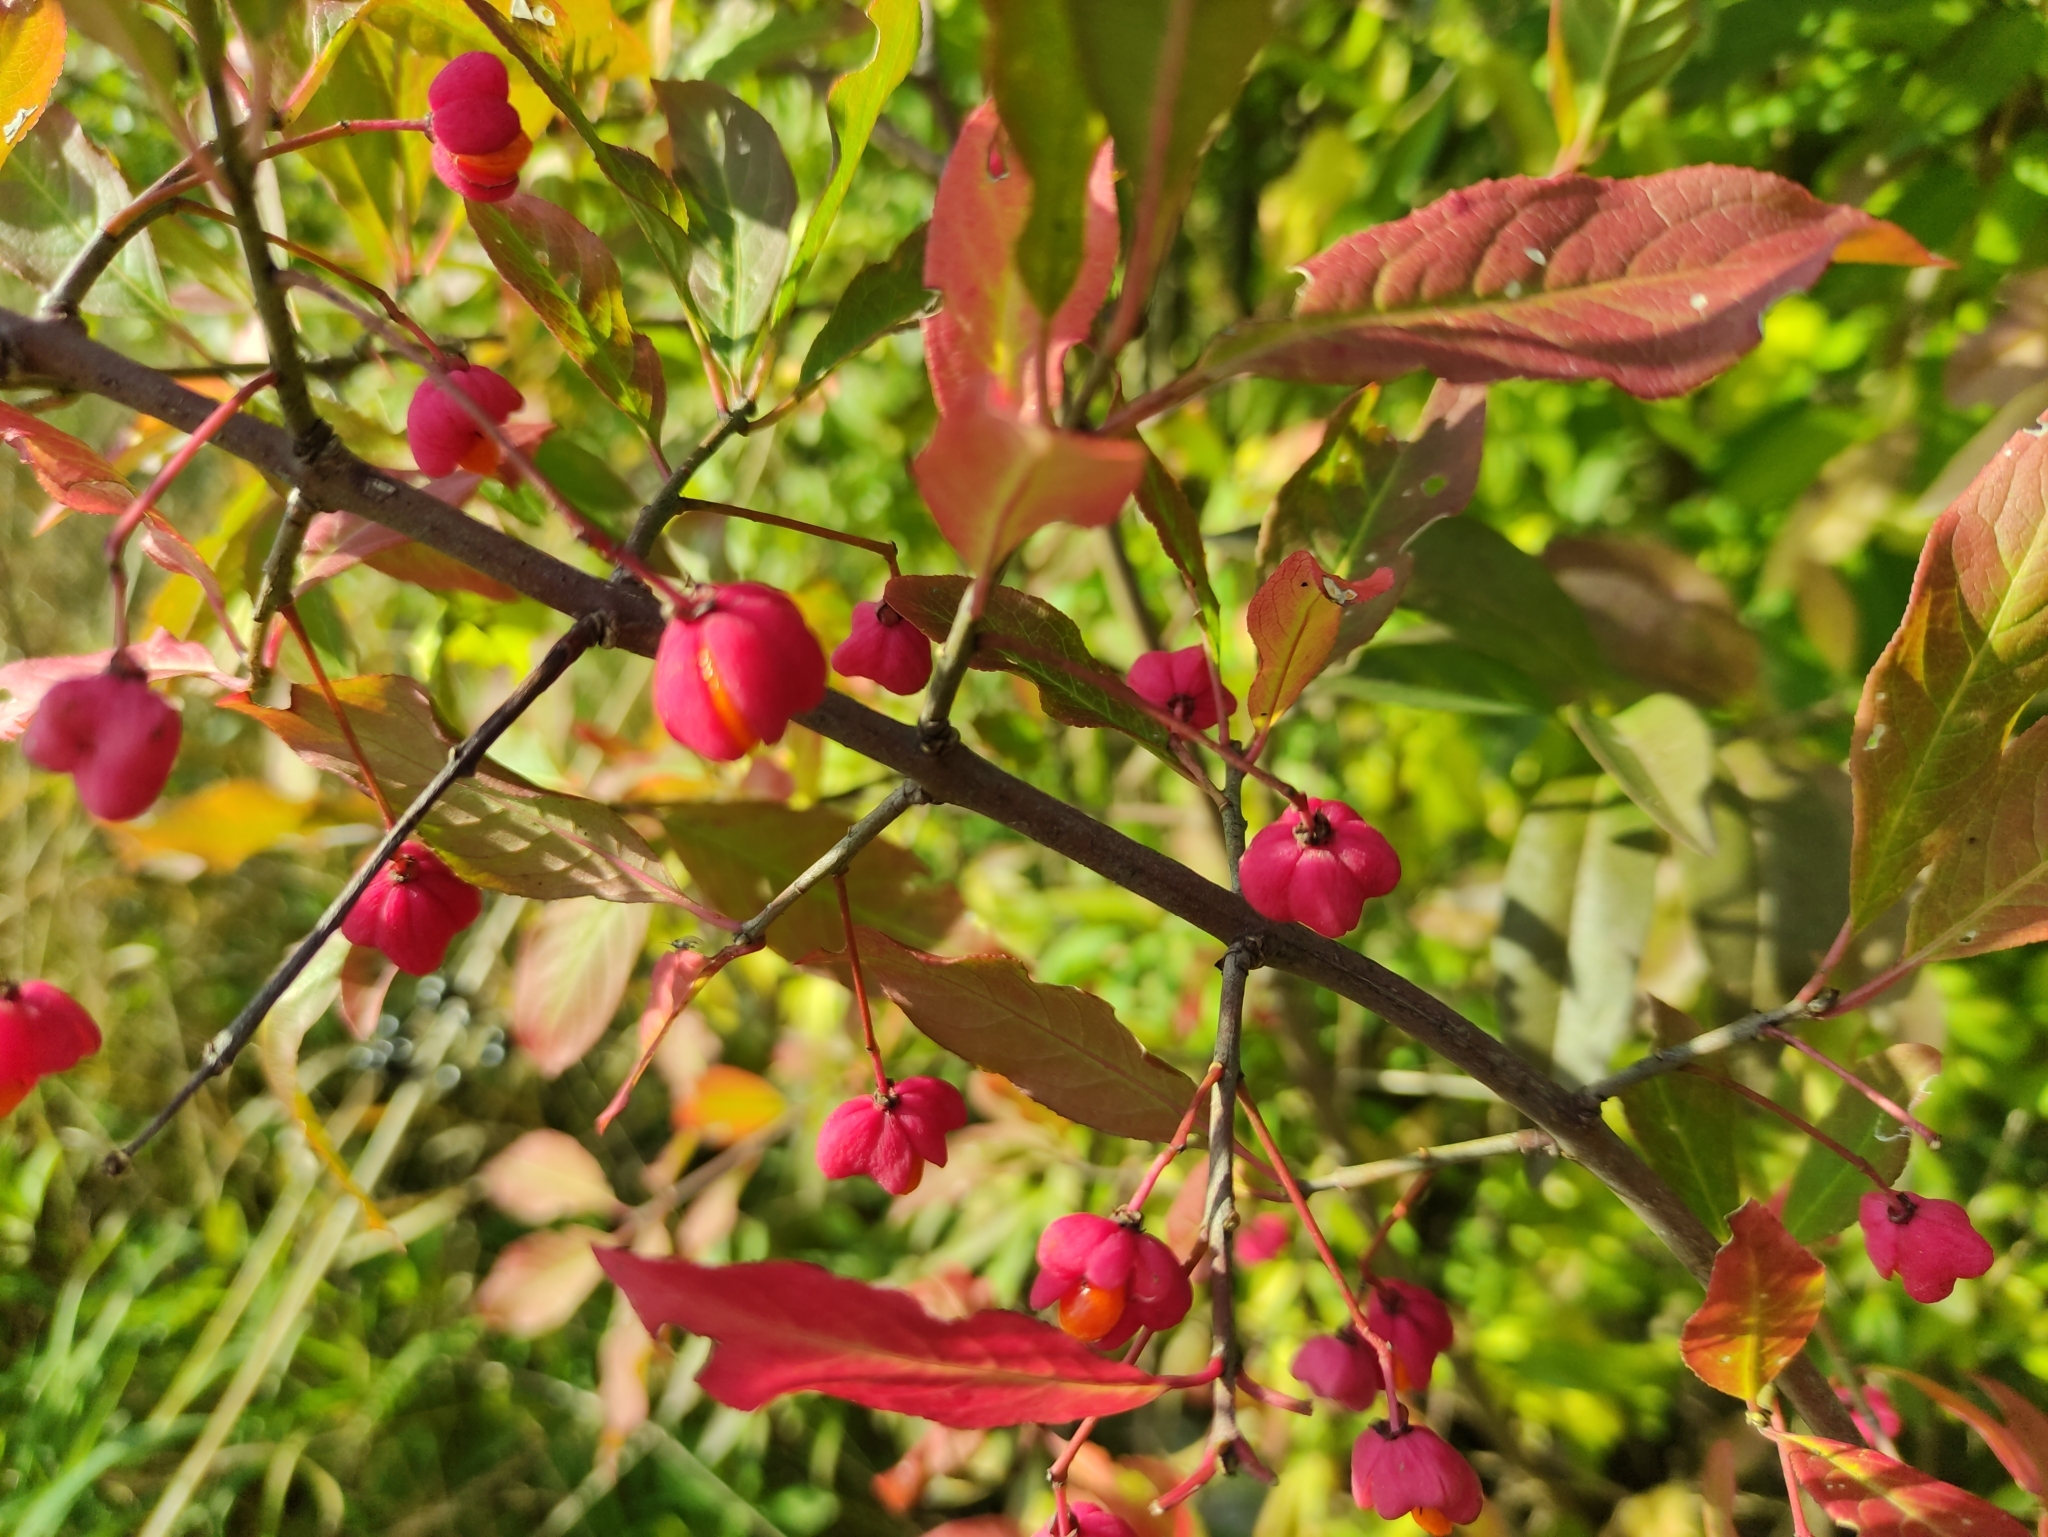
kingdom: Plantae
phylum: Tracheophyta
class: Magnoliopsida
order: Celastrales
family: Celastraceae
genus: Euonymus
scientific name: Euonymus europaeus
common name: Spindle
